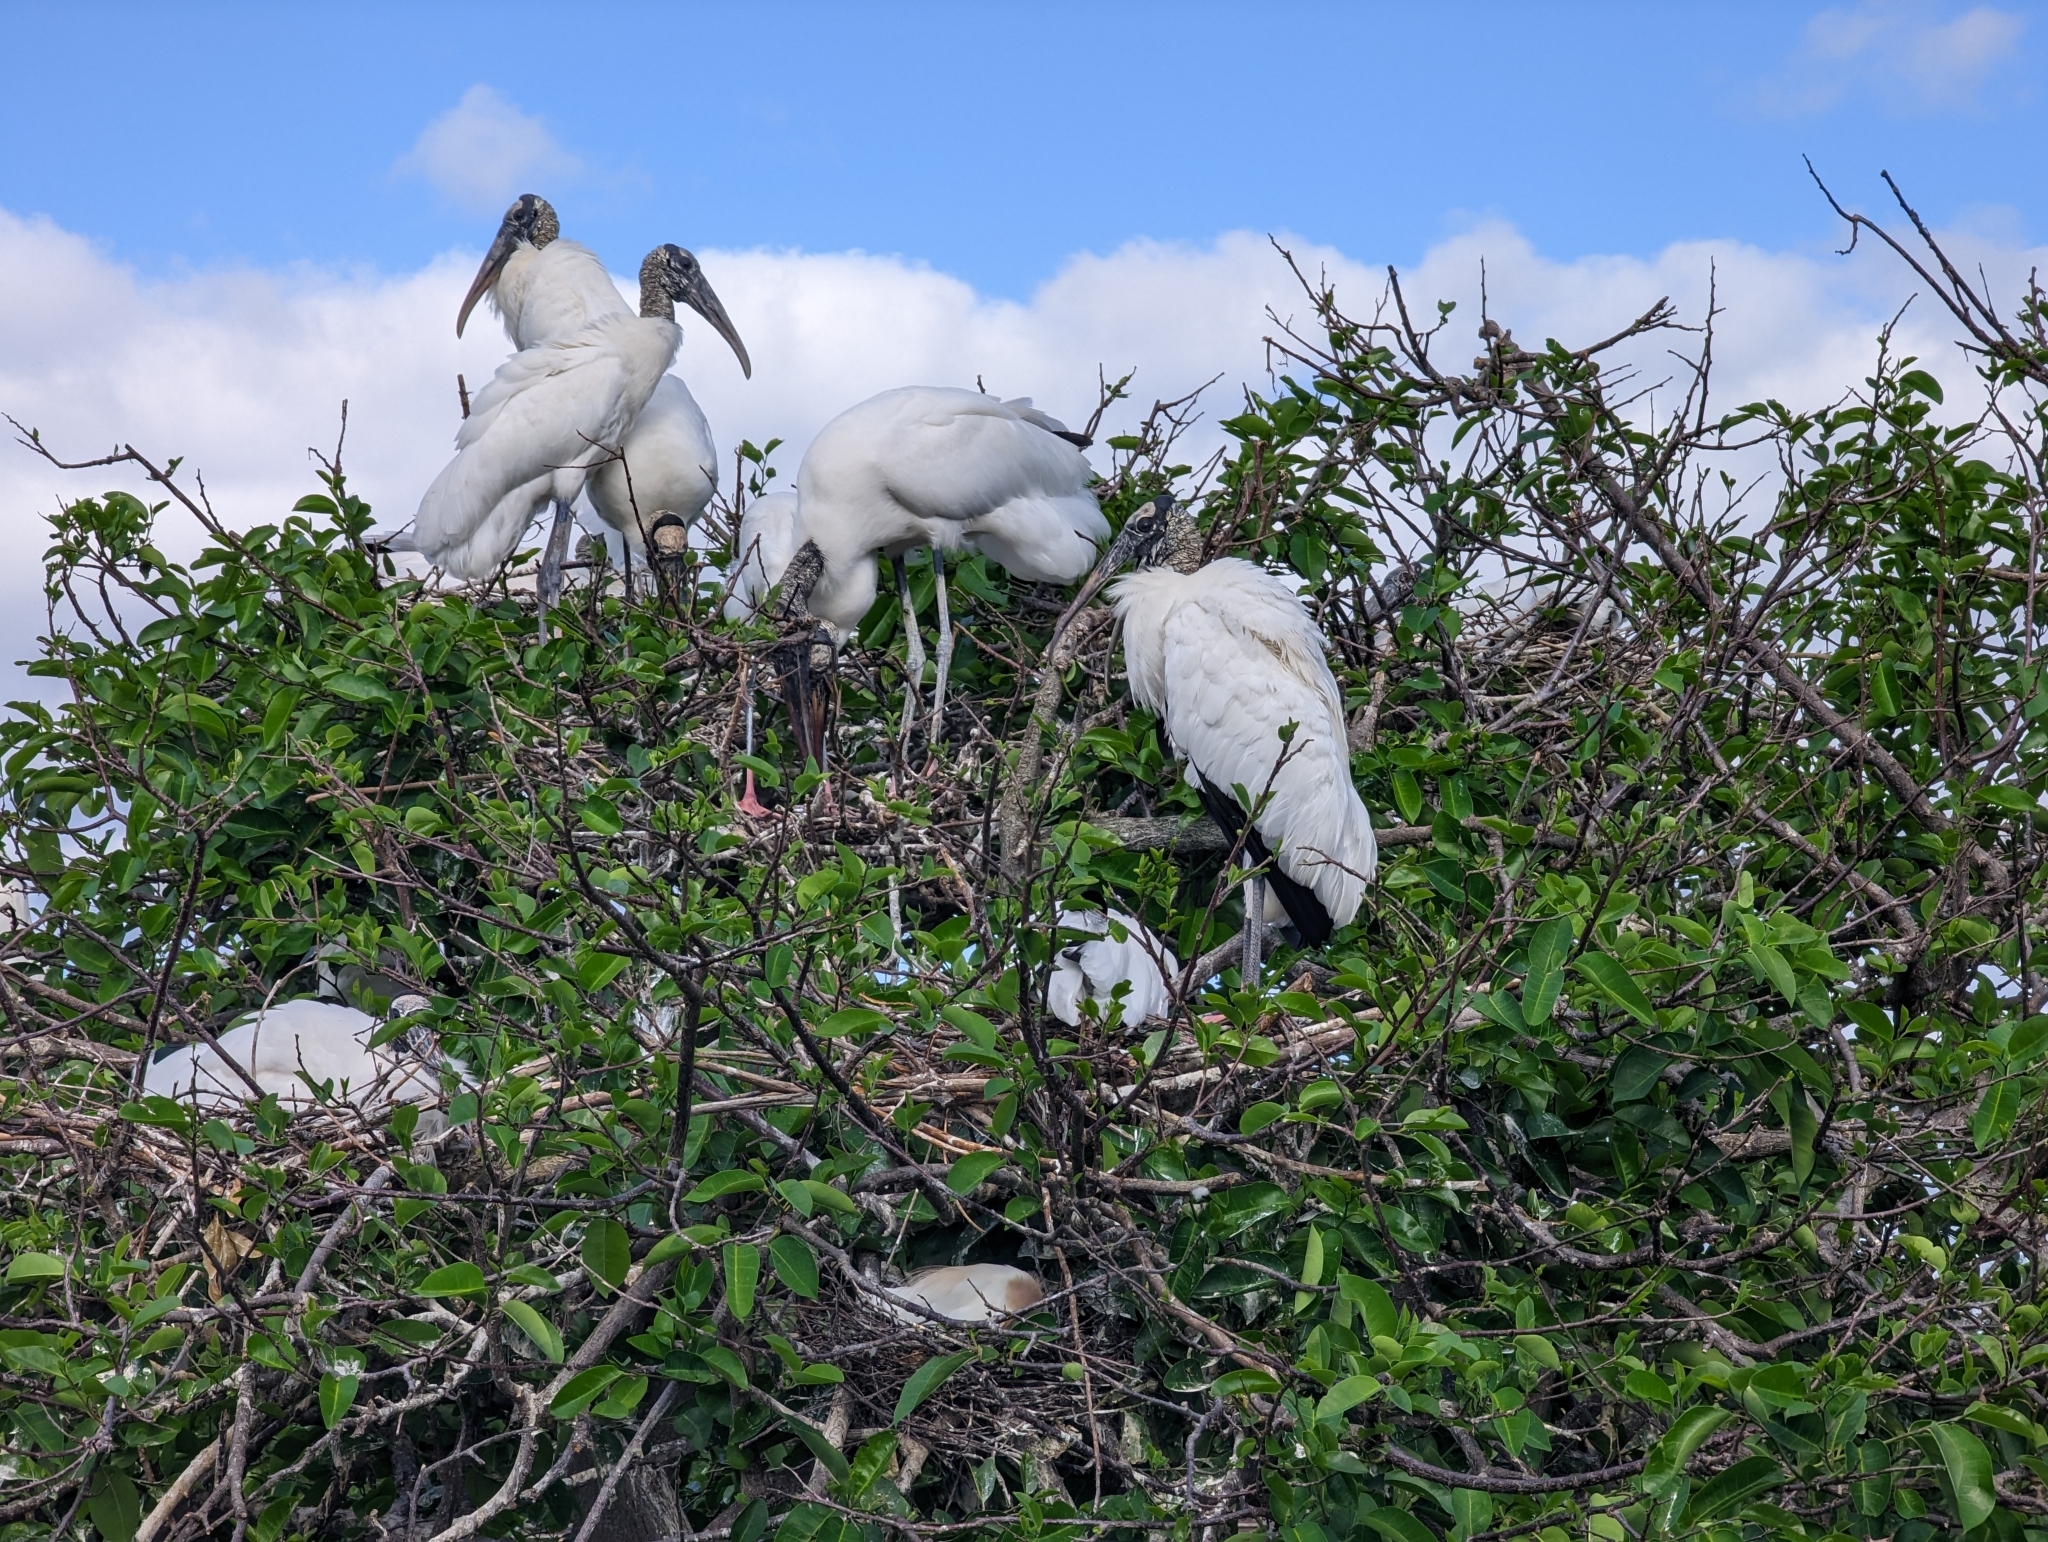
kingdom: Animalia
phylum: Chordata
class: Aves
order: Ciconiiformes
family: Ciconiidae
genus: Mycteria
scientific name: Mycteria americana
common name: Wood stork
